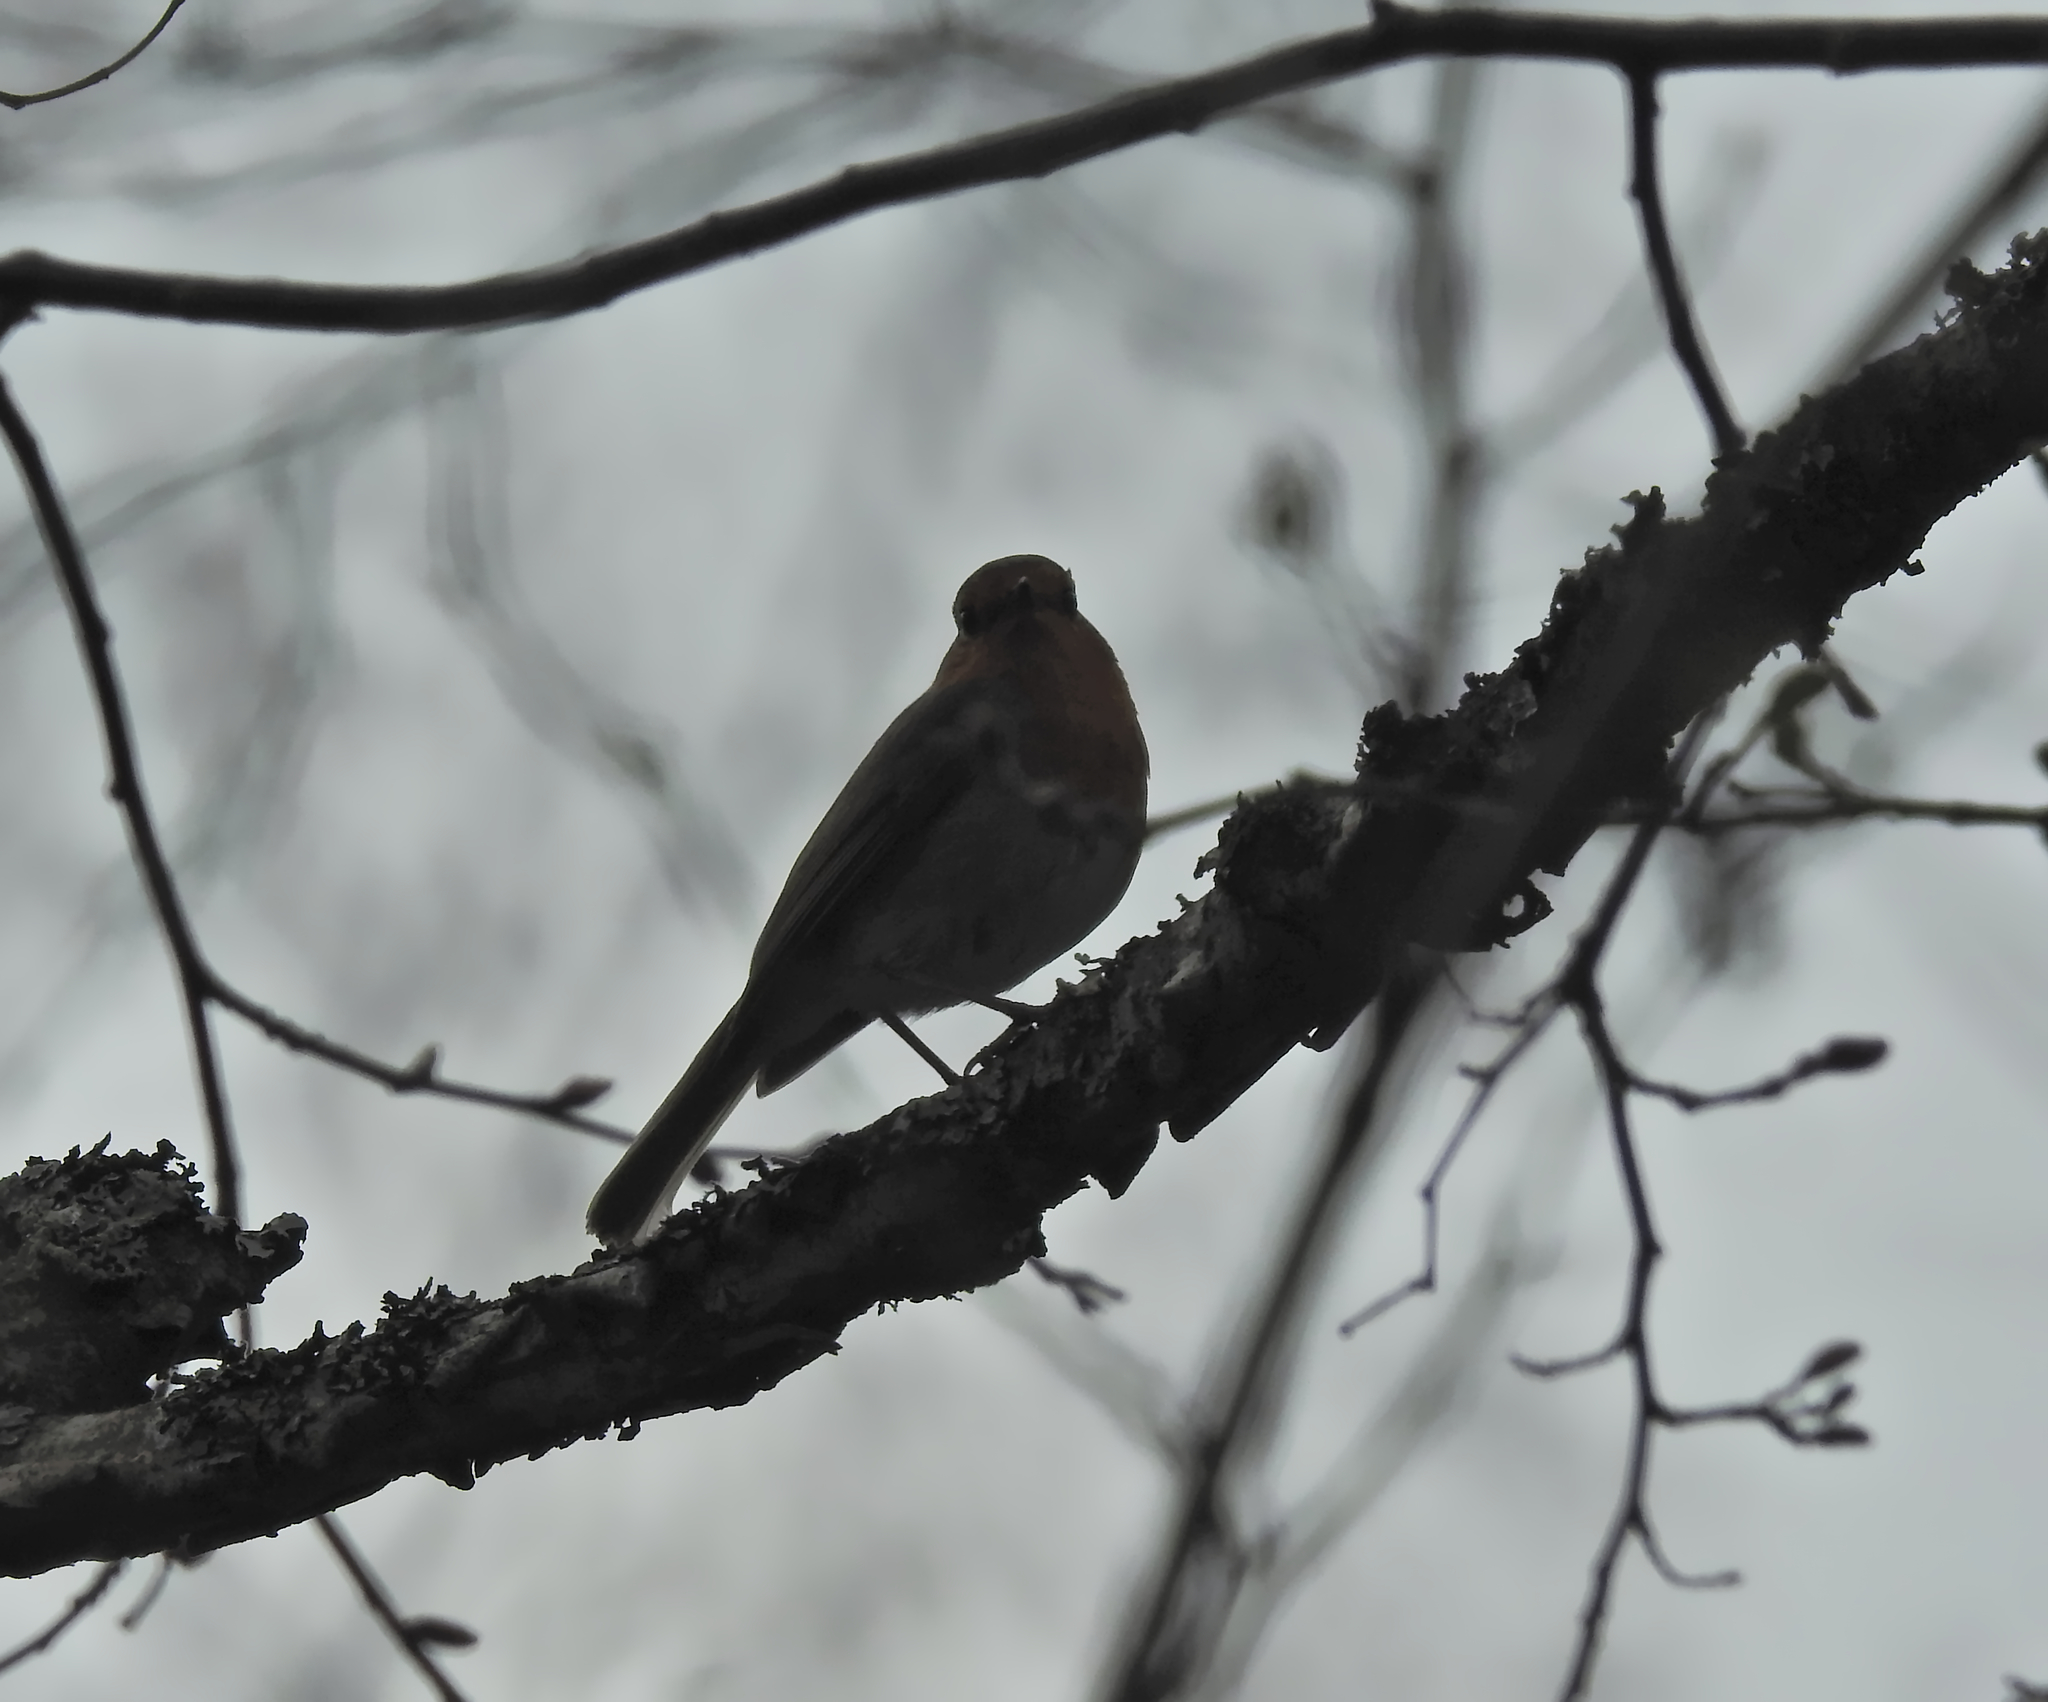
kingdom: Animalia
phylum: Chordata
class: Aves
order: Passeriformes
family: Muscicapidae
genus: Erithacus
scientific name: Erithacus rubecula
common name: European robin
